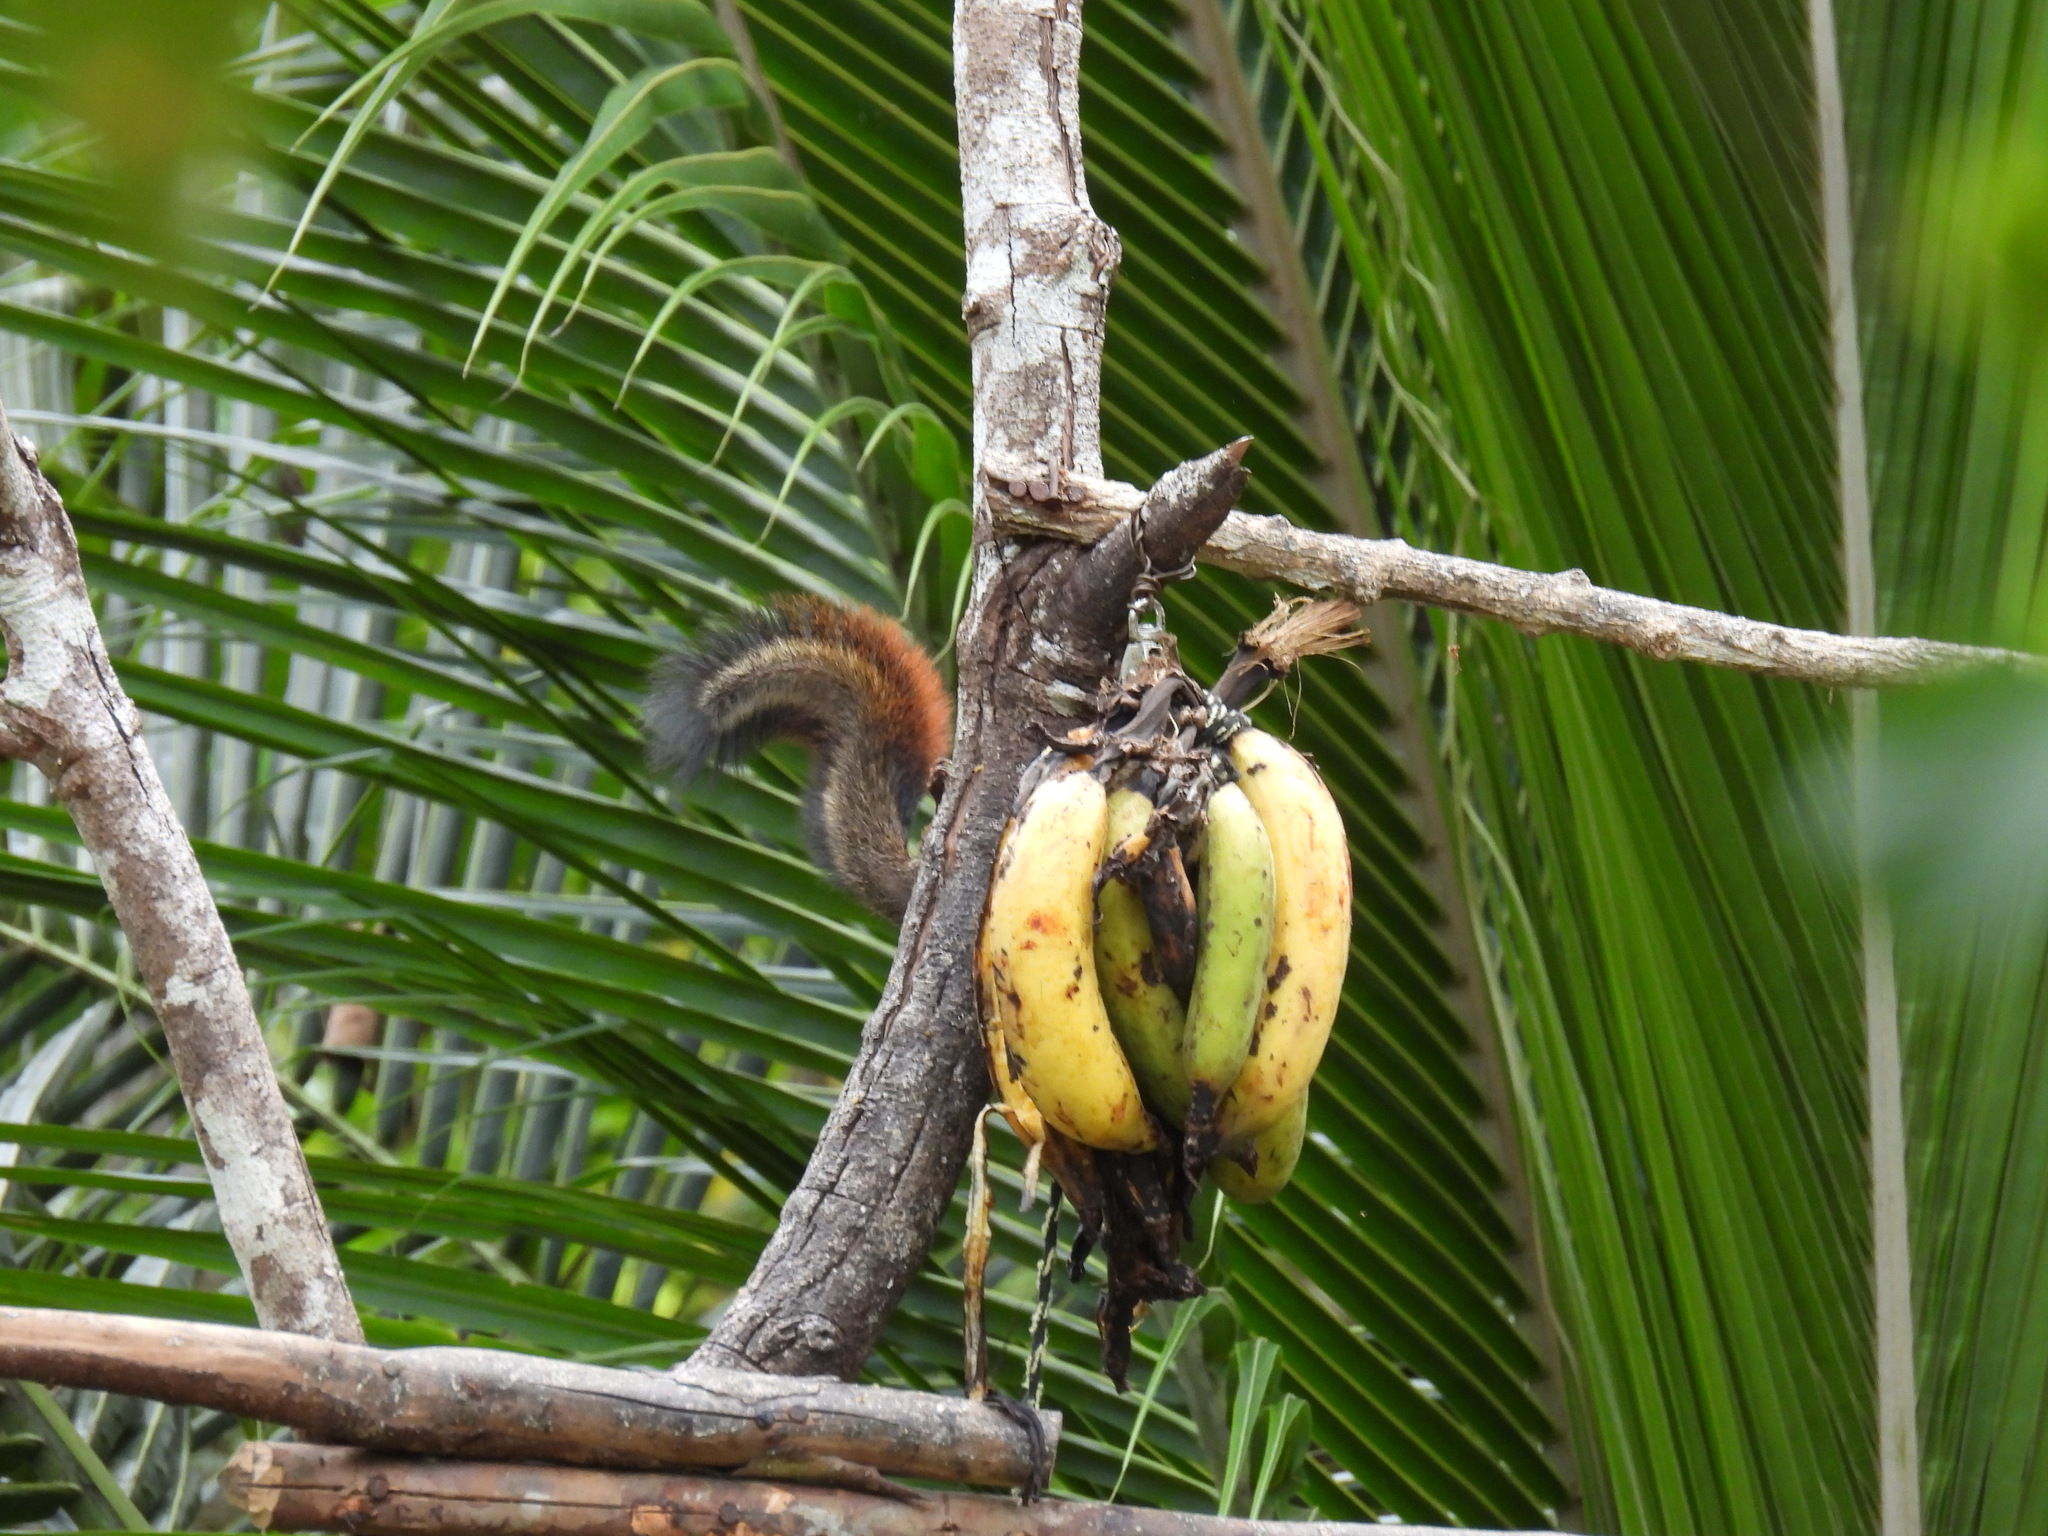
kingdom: Animalia
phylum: Chordata
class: Mammalia
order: Rodentia
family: Sciuridae
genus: Sciurus
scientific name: Sciurus granatensis
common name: Red-tailed squirrel
